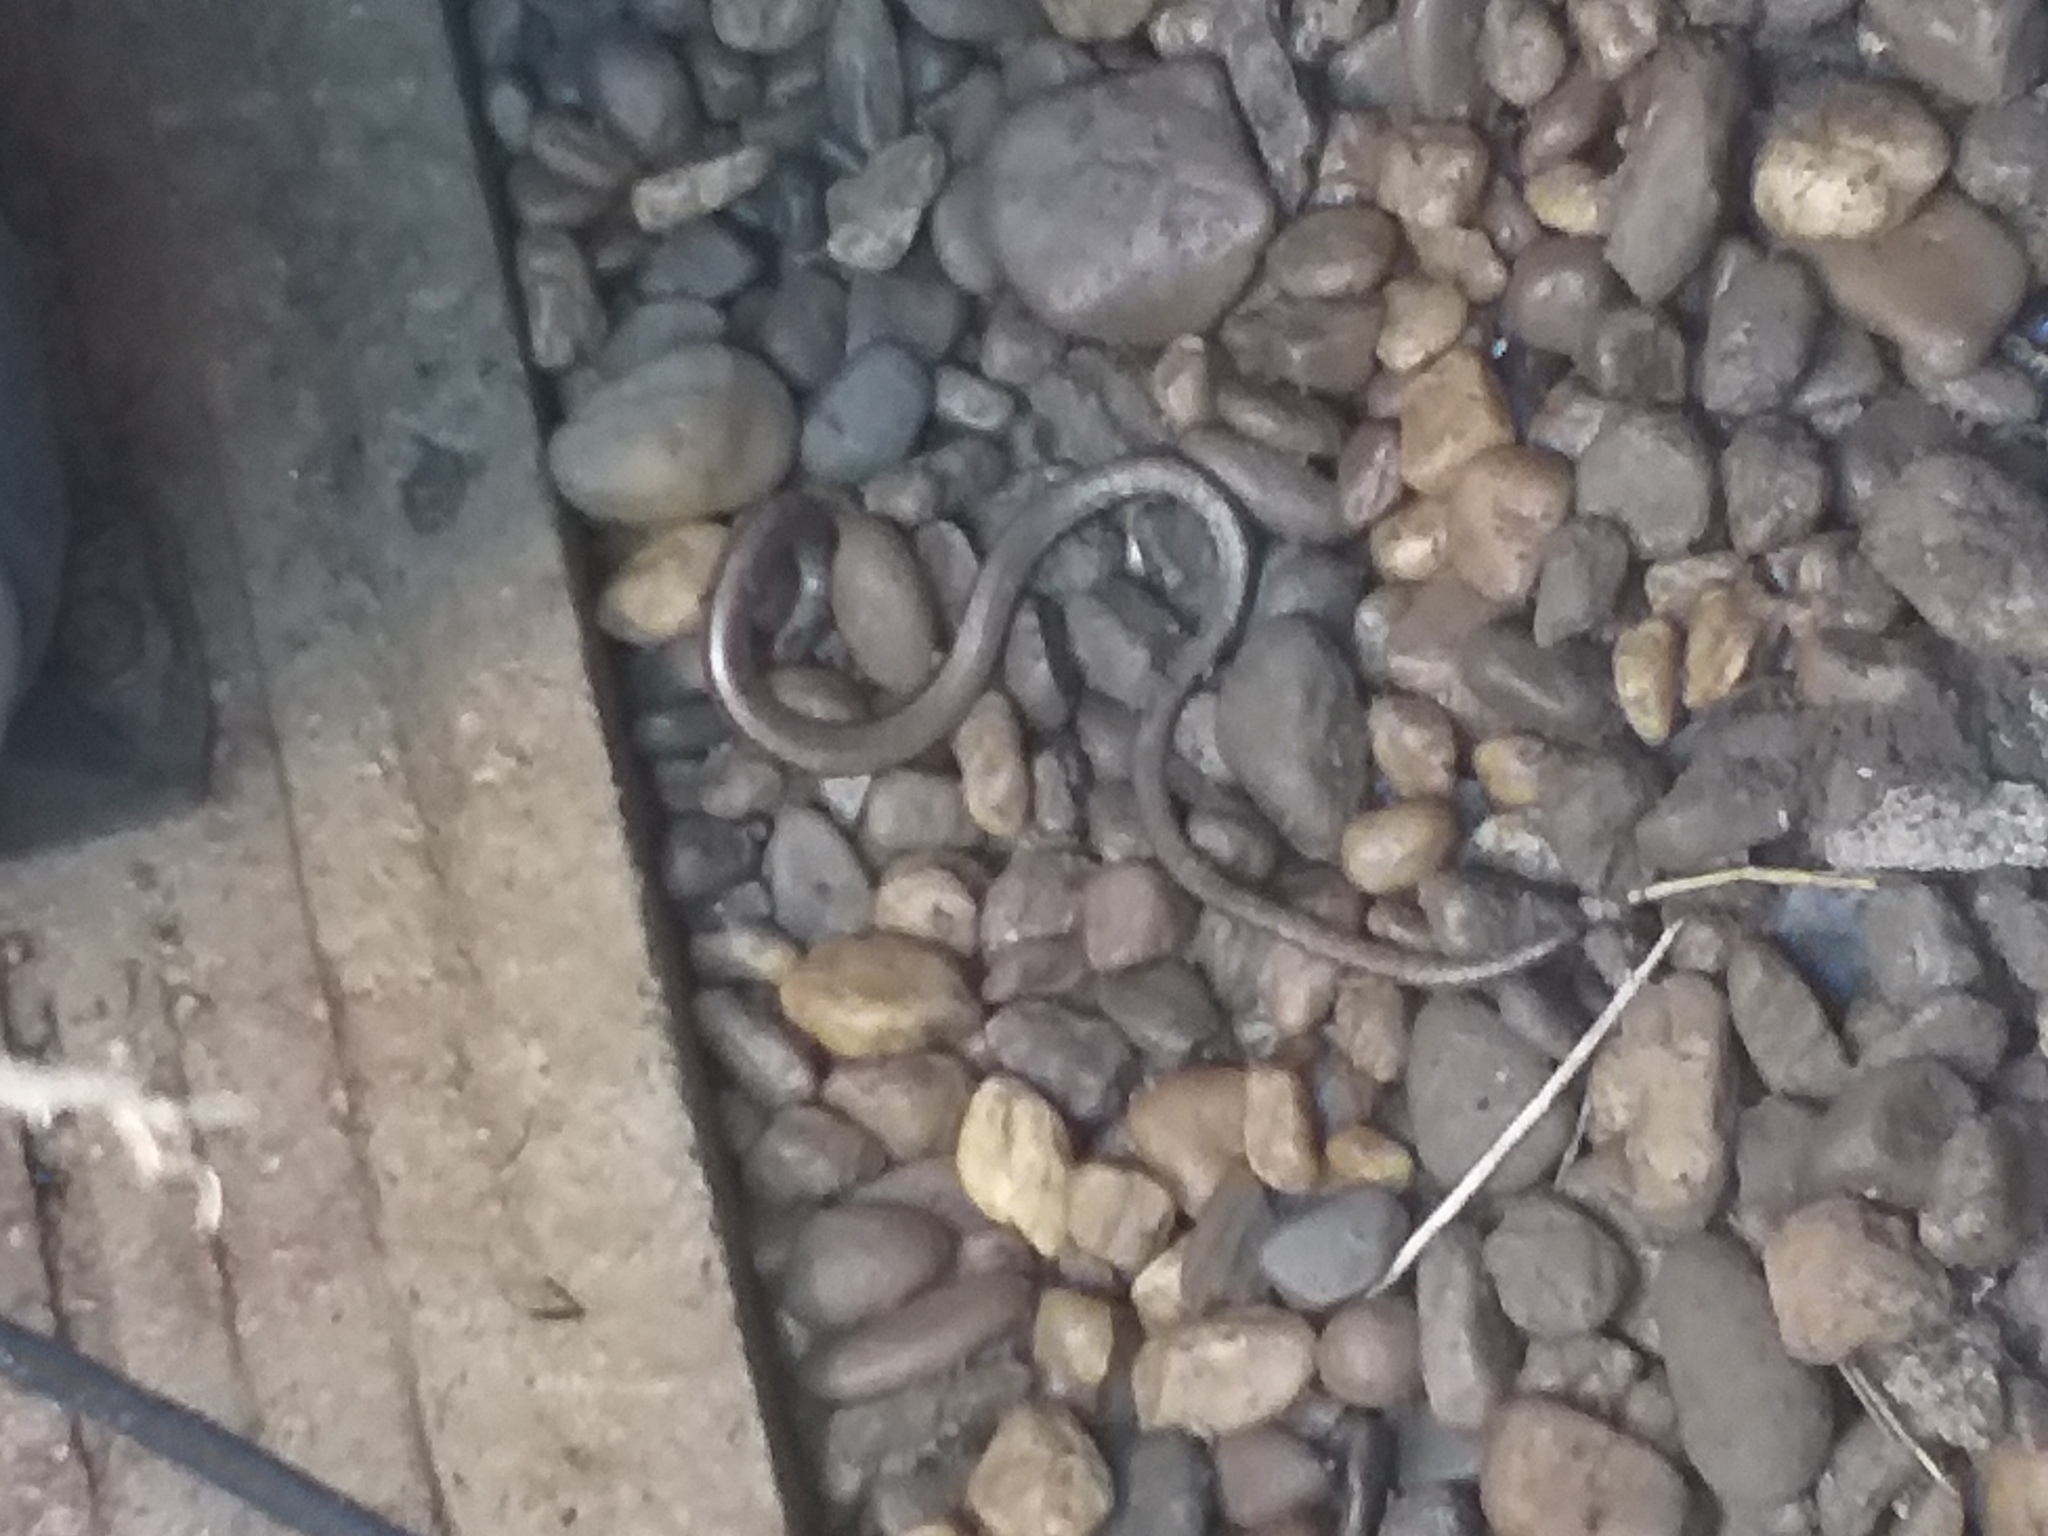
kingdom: Animalia
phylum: Chordata
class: Squamata
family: Anguidae
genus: Anguis
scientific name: Anguis fragilis
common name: Slow worm
